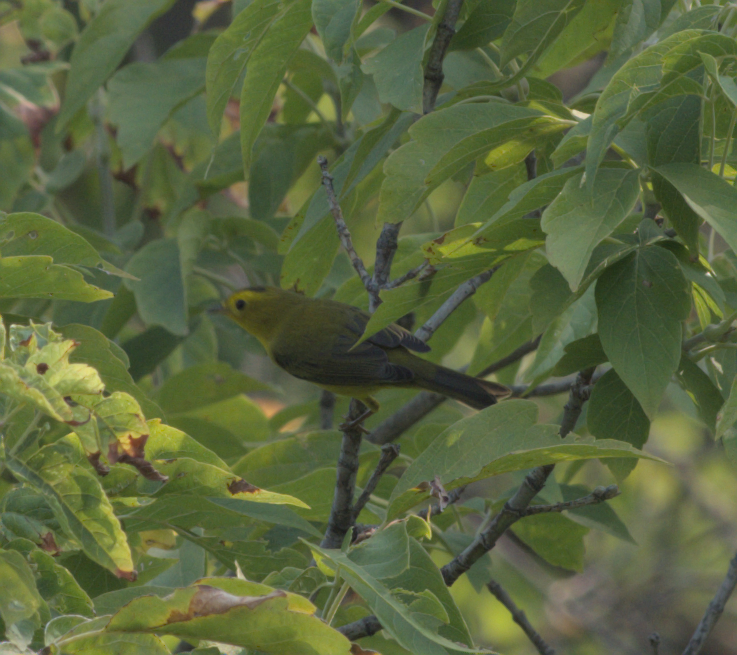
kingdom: Animalia
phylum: Chordata
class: Aves
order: Passeriformes
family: Parulidae
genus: Cardellina
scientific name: Cardellina pusilla
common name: Wilson's warbler
